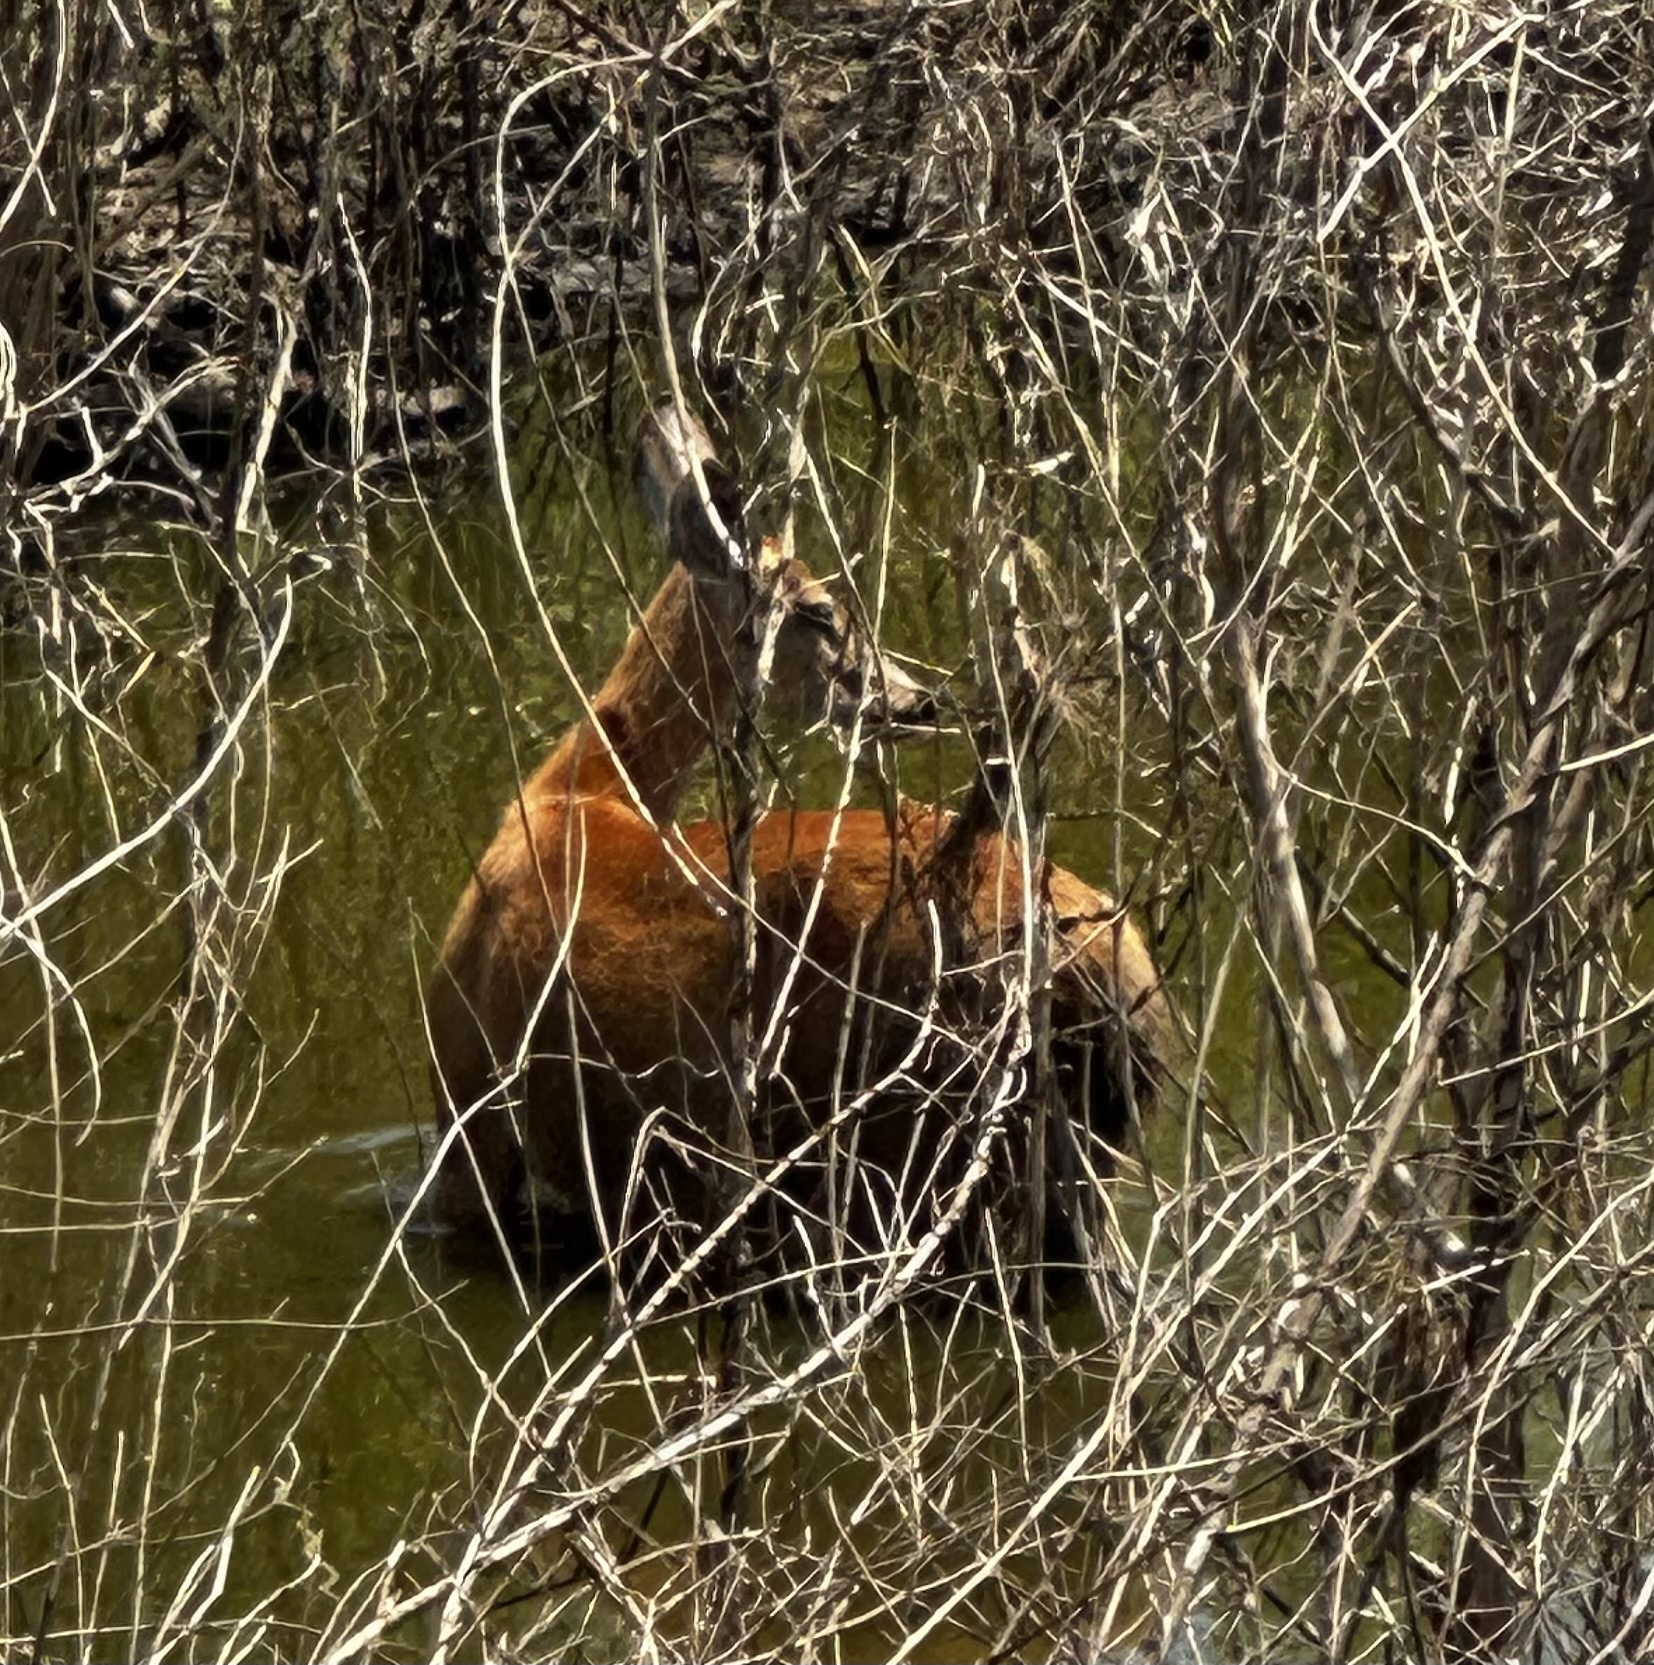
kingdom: Animalia
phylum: Chordata
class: Mammalia
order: Artiodactyla
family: Cervidae
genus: Blastocerus
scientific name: Blastocerus dichotomus
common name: Marsh deer
